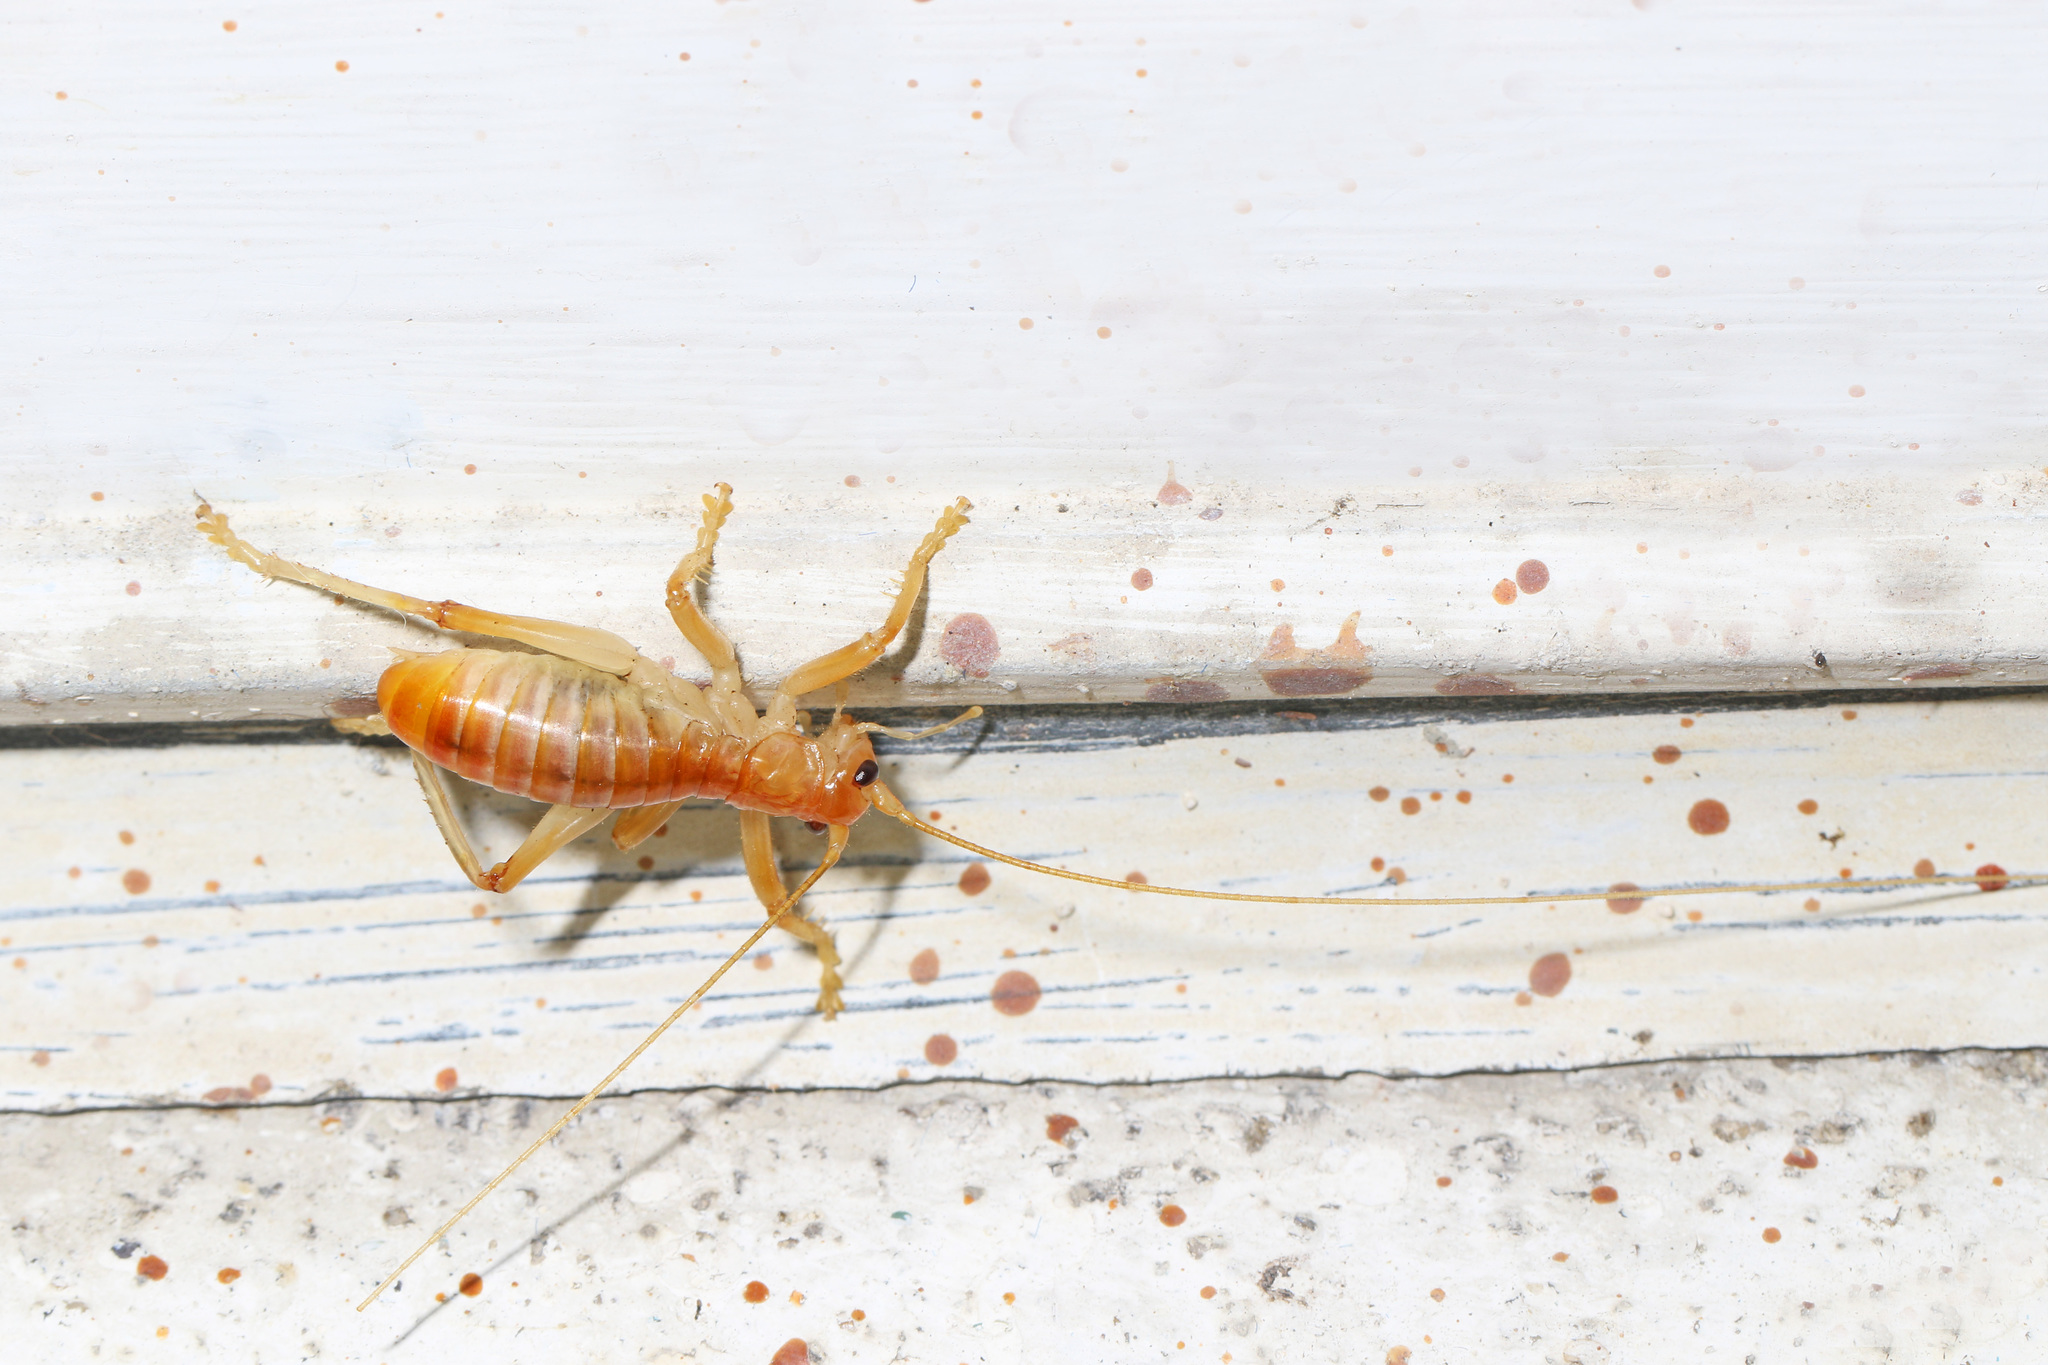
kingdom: Animalia
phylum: Arthropoda
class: Insecta
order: Orthoptera
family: Gryllacrididae
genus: Camptonotus
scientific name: Camptonotus carolinensis
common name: Carolina leaf-roller
